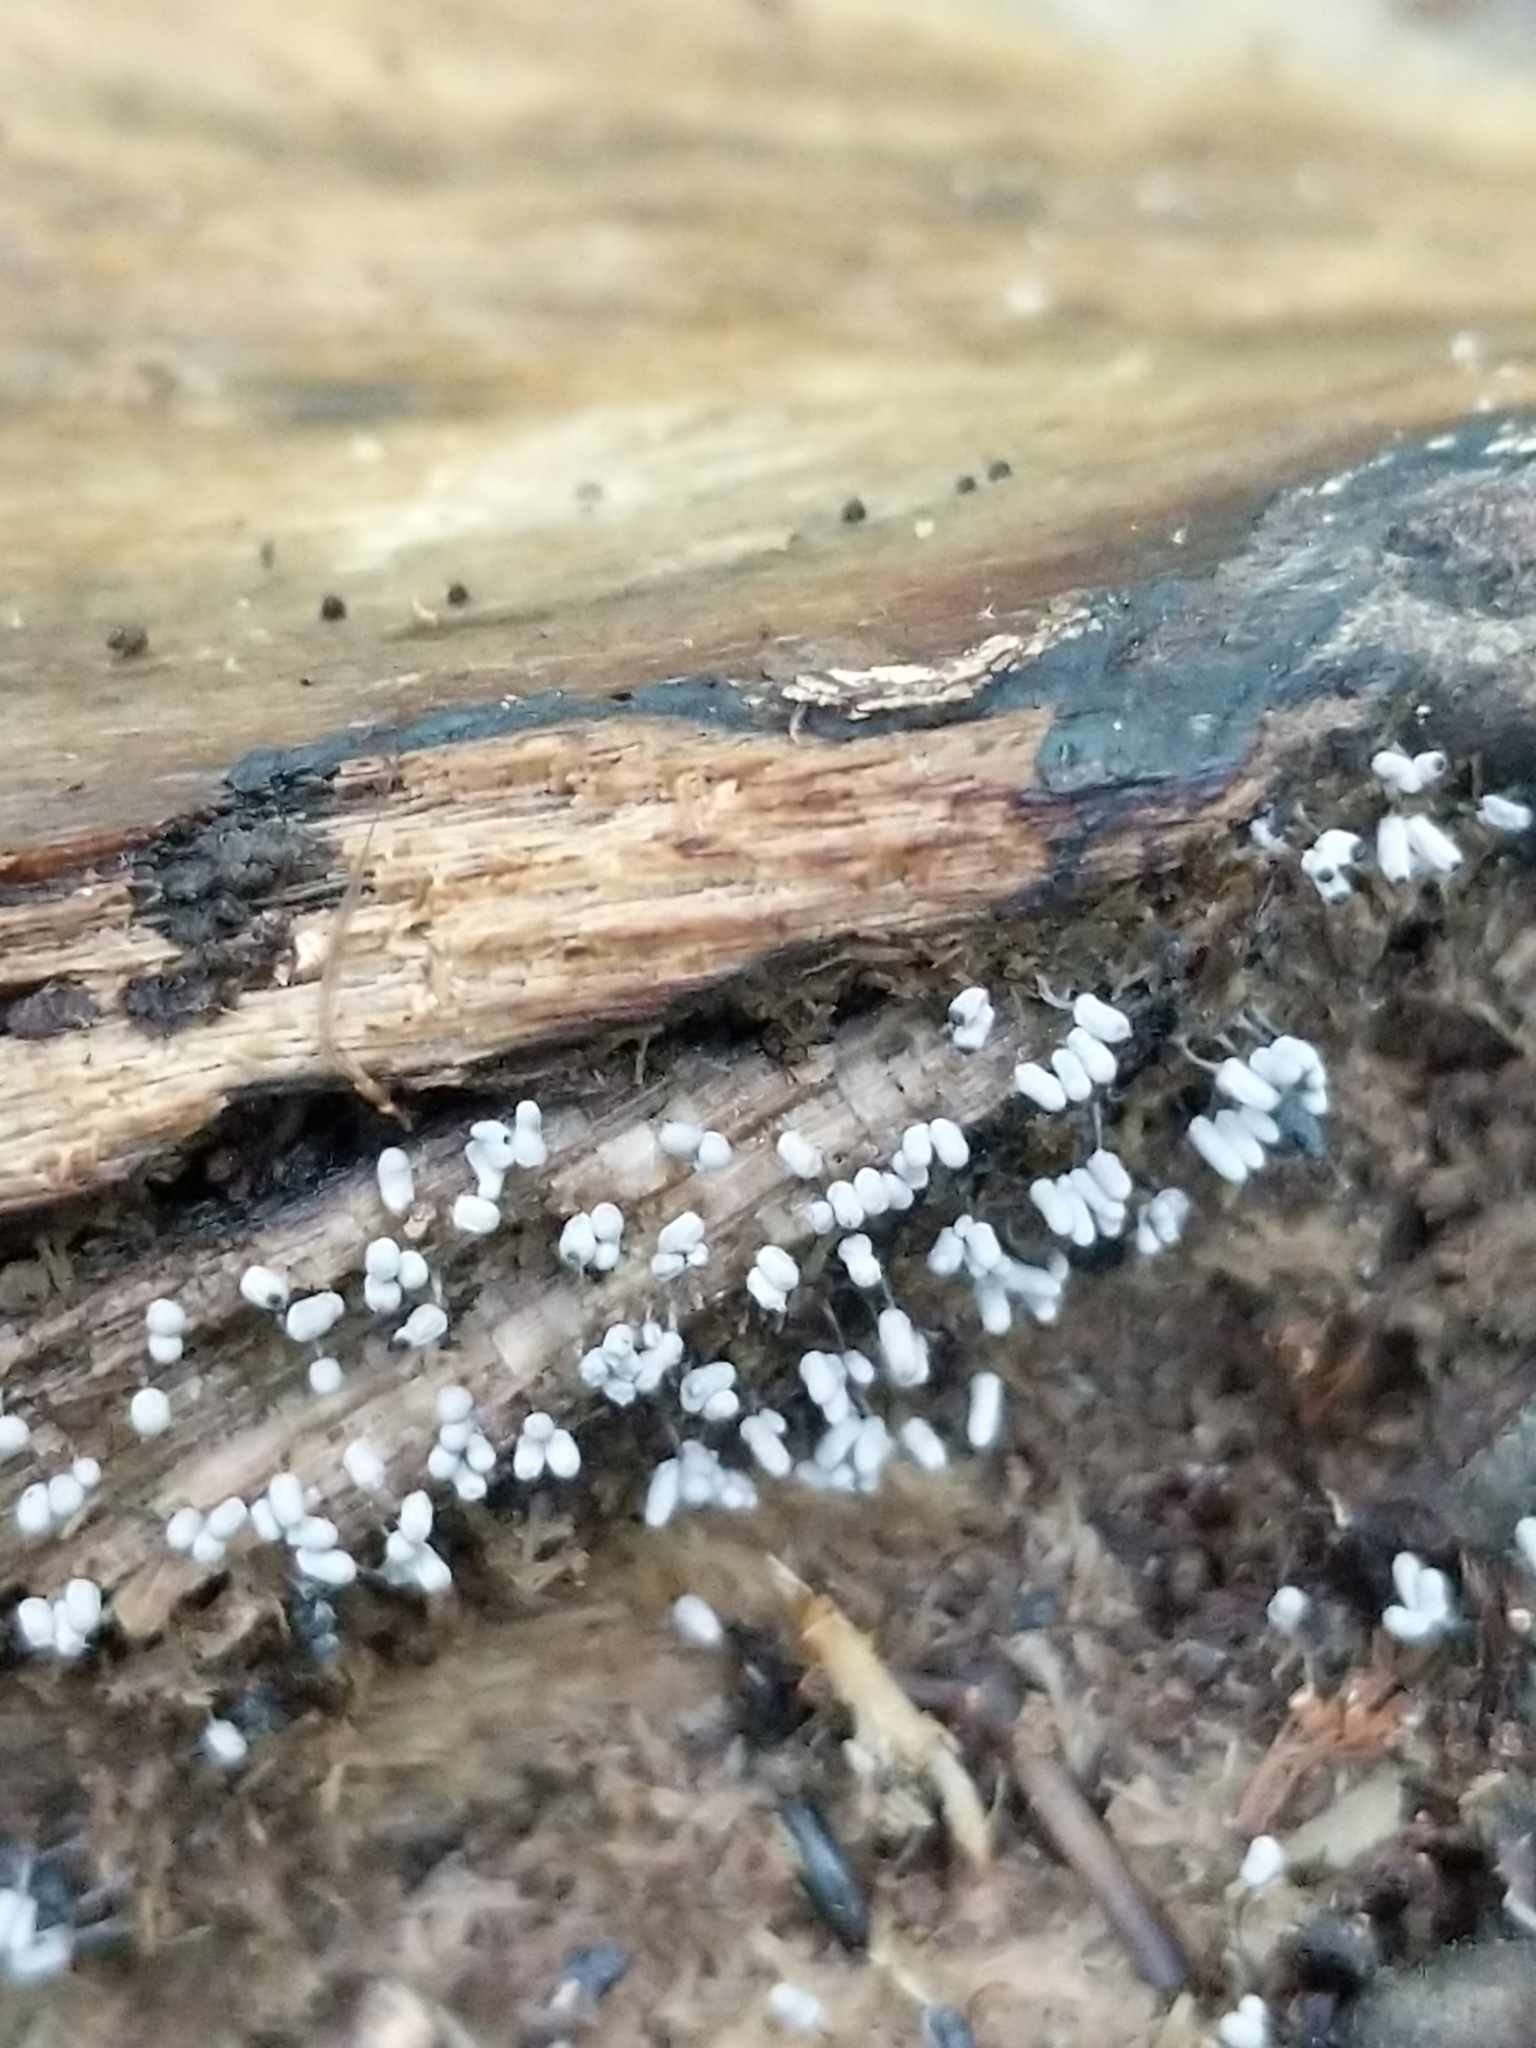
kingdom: Protozoa
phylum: Mycetozoa
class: Myxomycetes
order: Trichiales
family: Arcyriaceae
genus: Arcyria
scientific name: Arcyria cinerea
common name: White carnival candy slime mold
